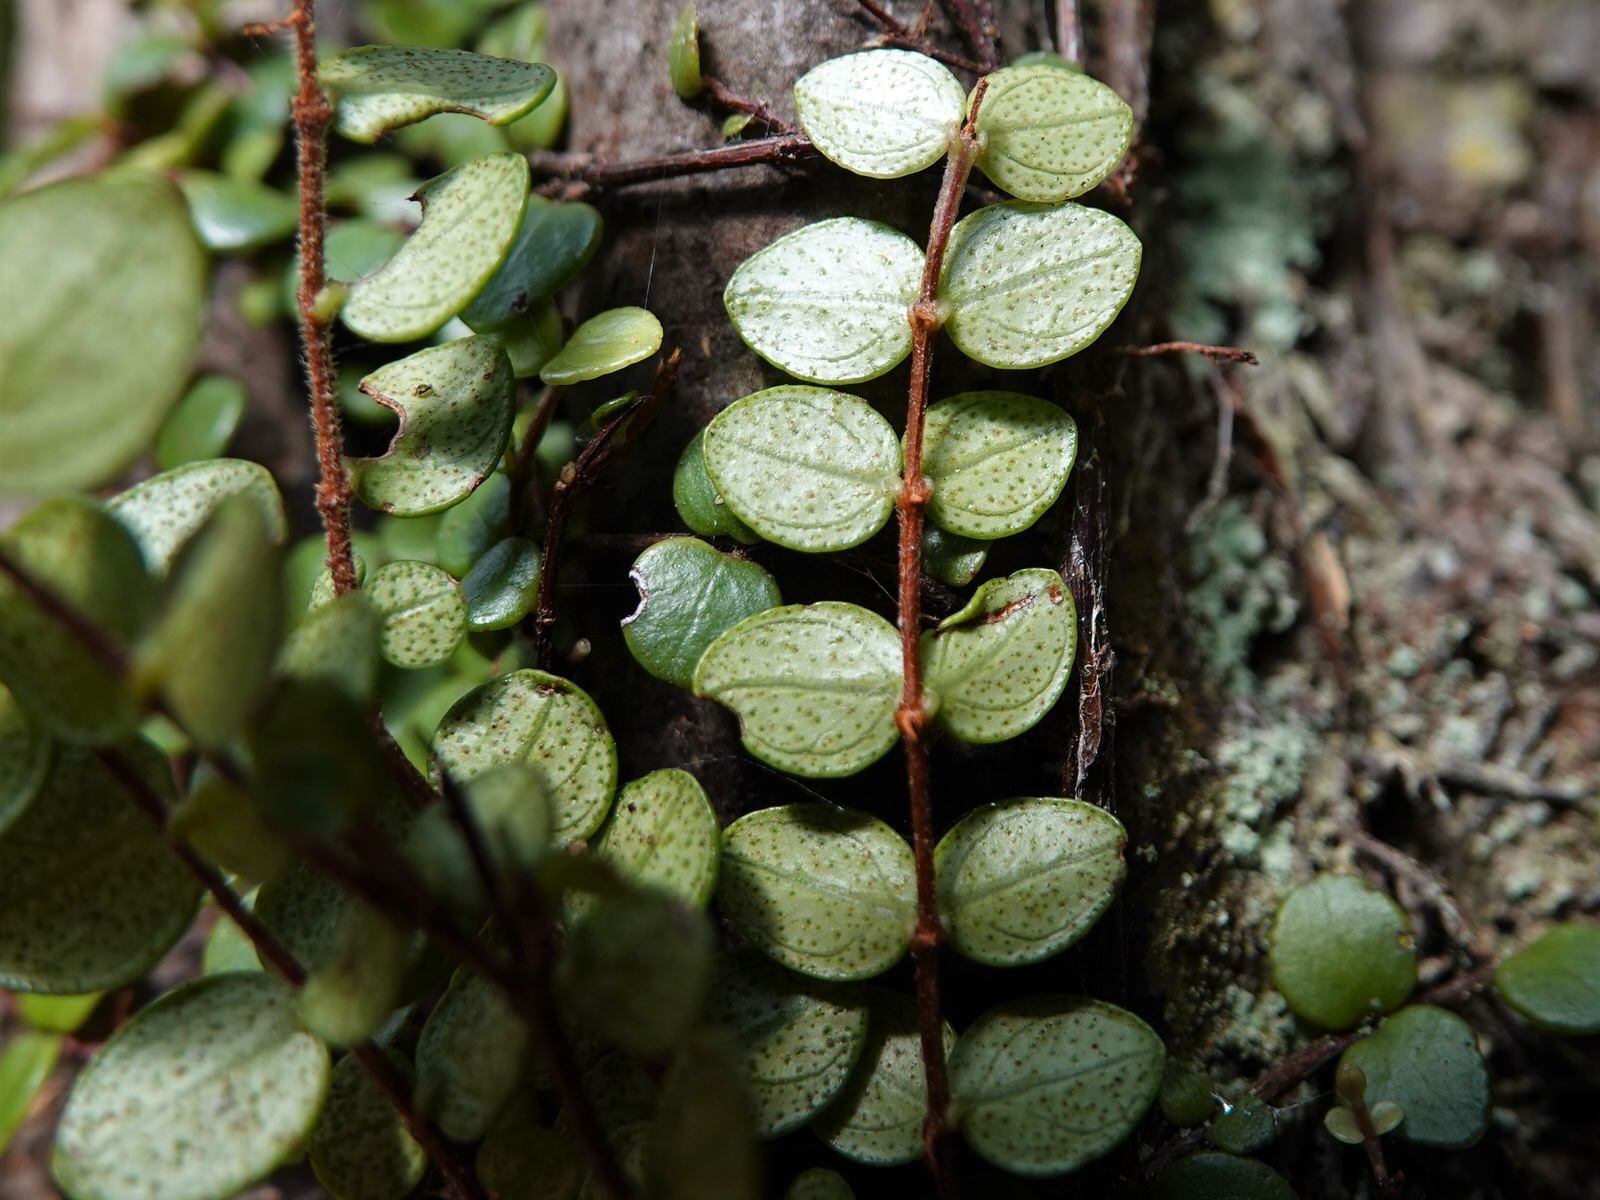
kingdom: Plantae
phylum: Tracheophyta
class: Magnoliopsida
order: Myrtales
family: Myrtaceae
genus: Metrosideros
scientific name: Metrosideros perforata
